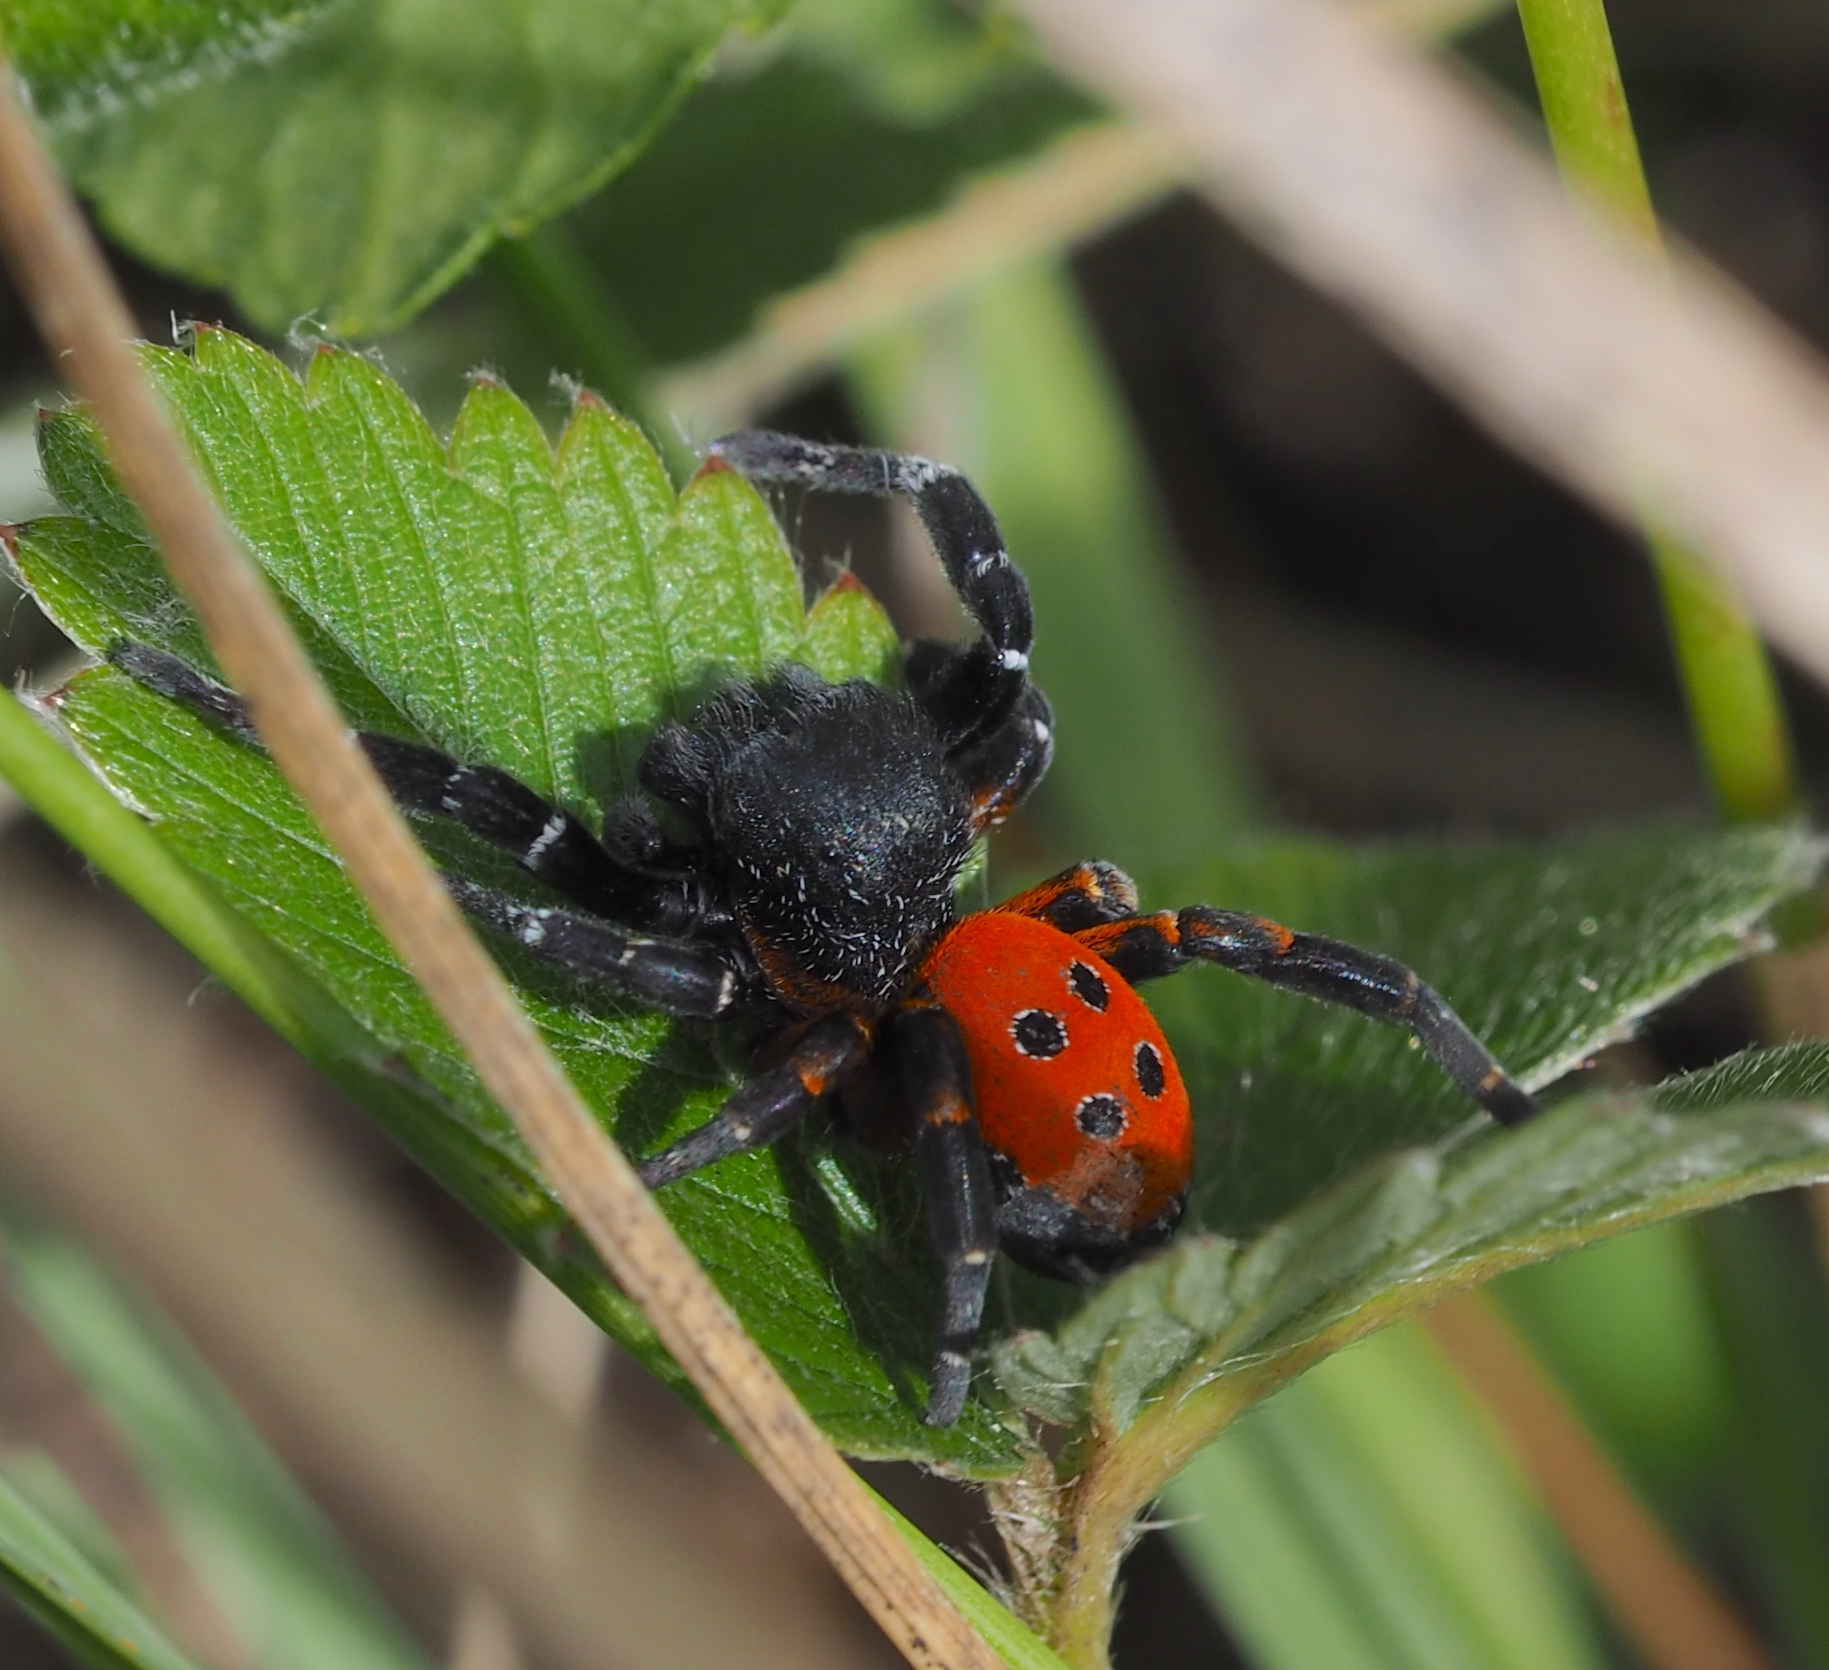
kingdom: Animalia
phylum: Arthropoda
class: Arachnida
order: Araneae
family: Eresidae
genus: Eresus
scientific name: Eresus kollari
